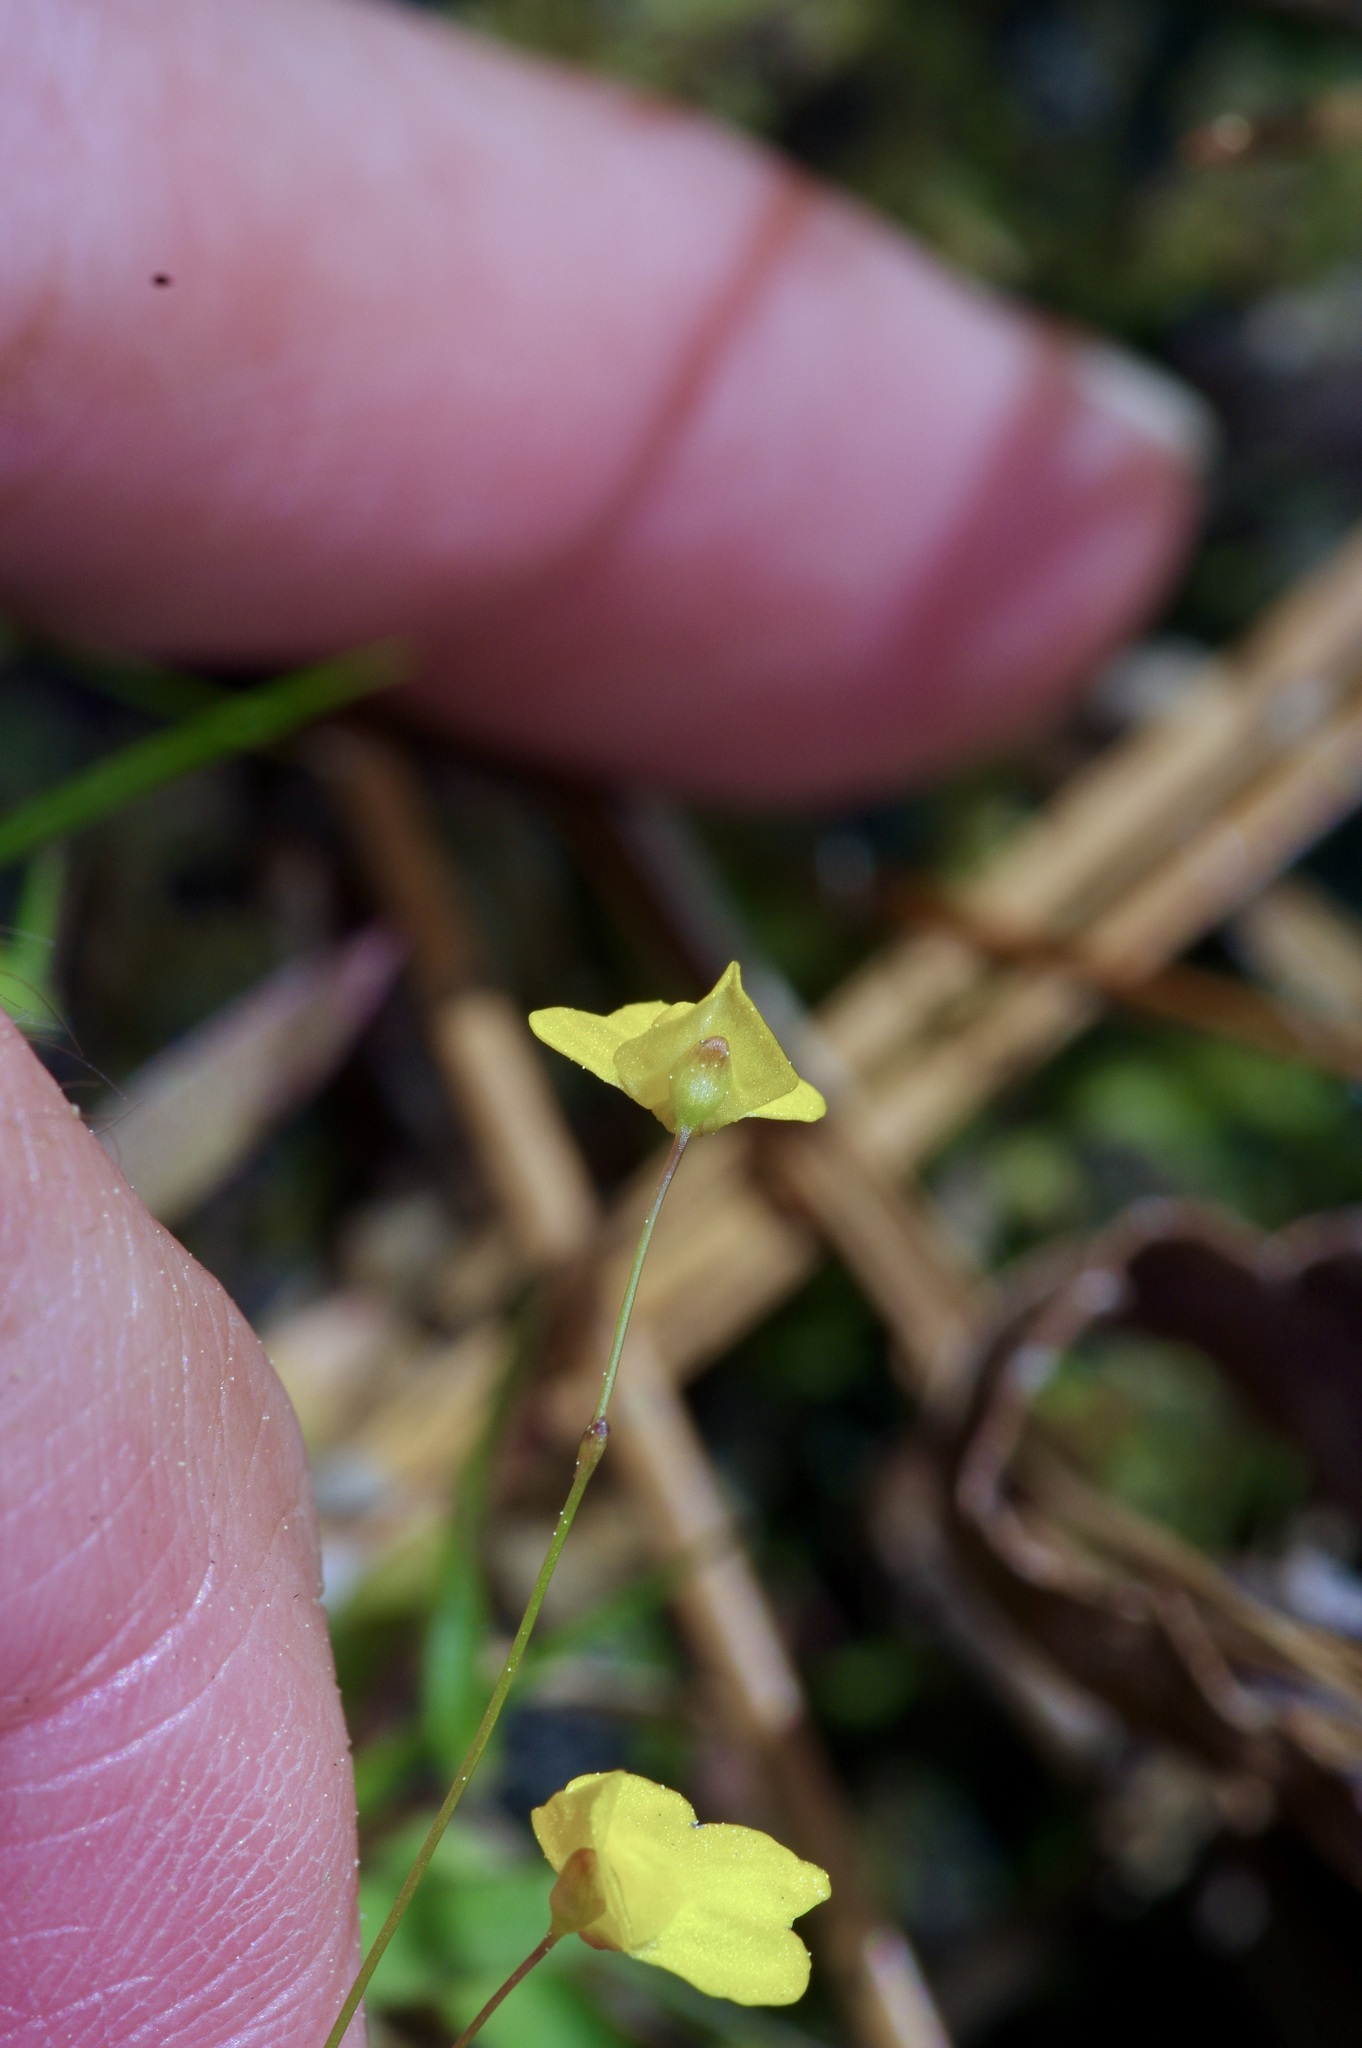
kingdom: Plantae
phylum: Tracheophyta
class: Magnoliopsida
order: Lamiales
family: Lentibulariaceae
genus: Utricularia
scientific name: Utricularia subulata
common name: Tiny bladderwort
